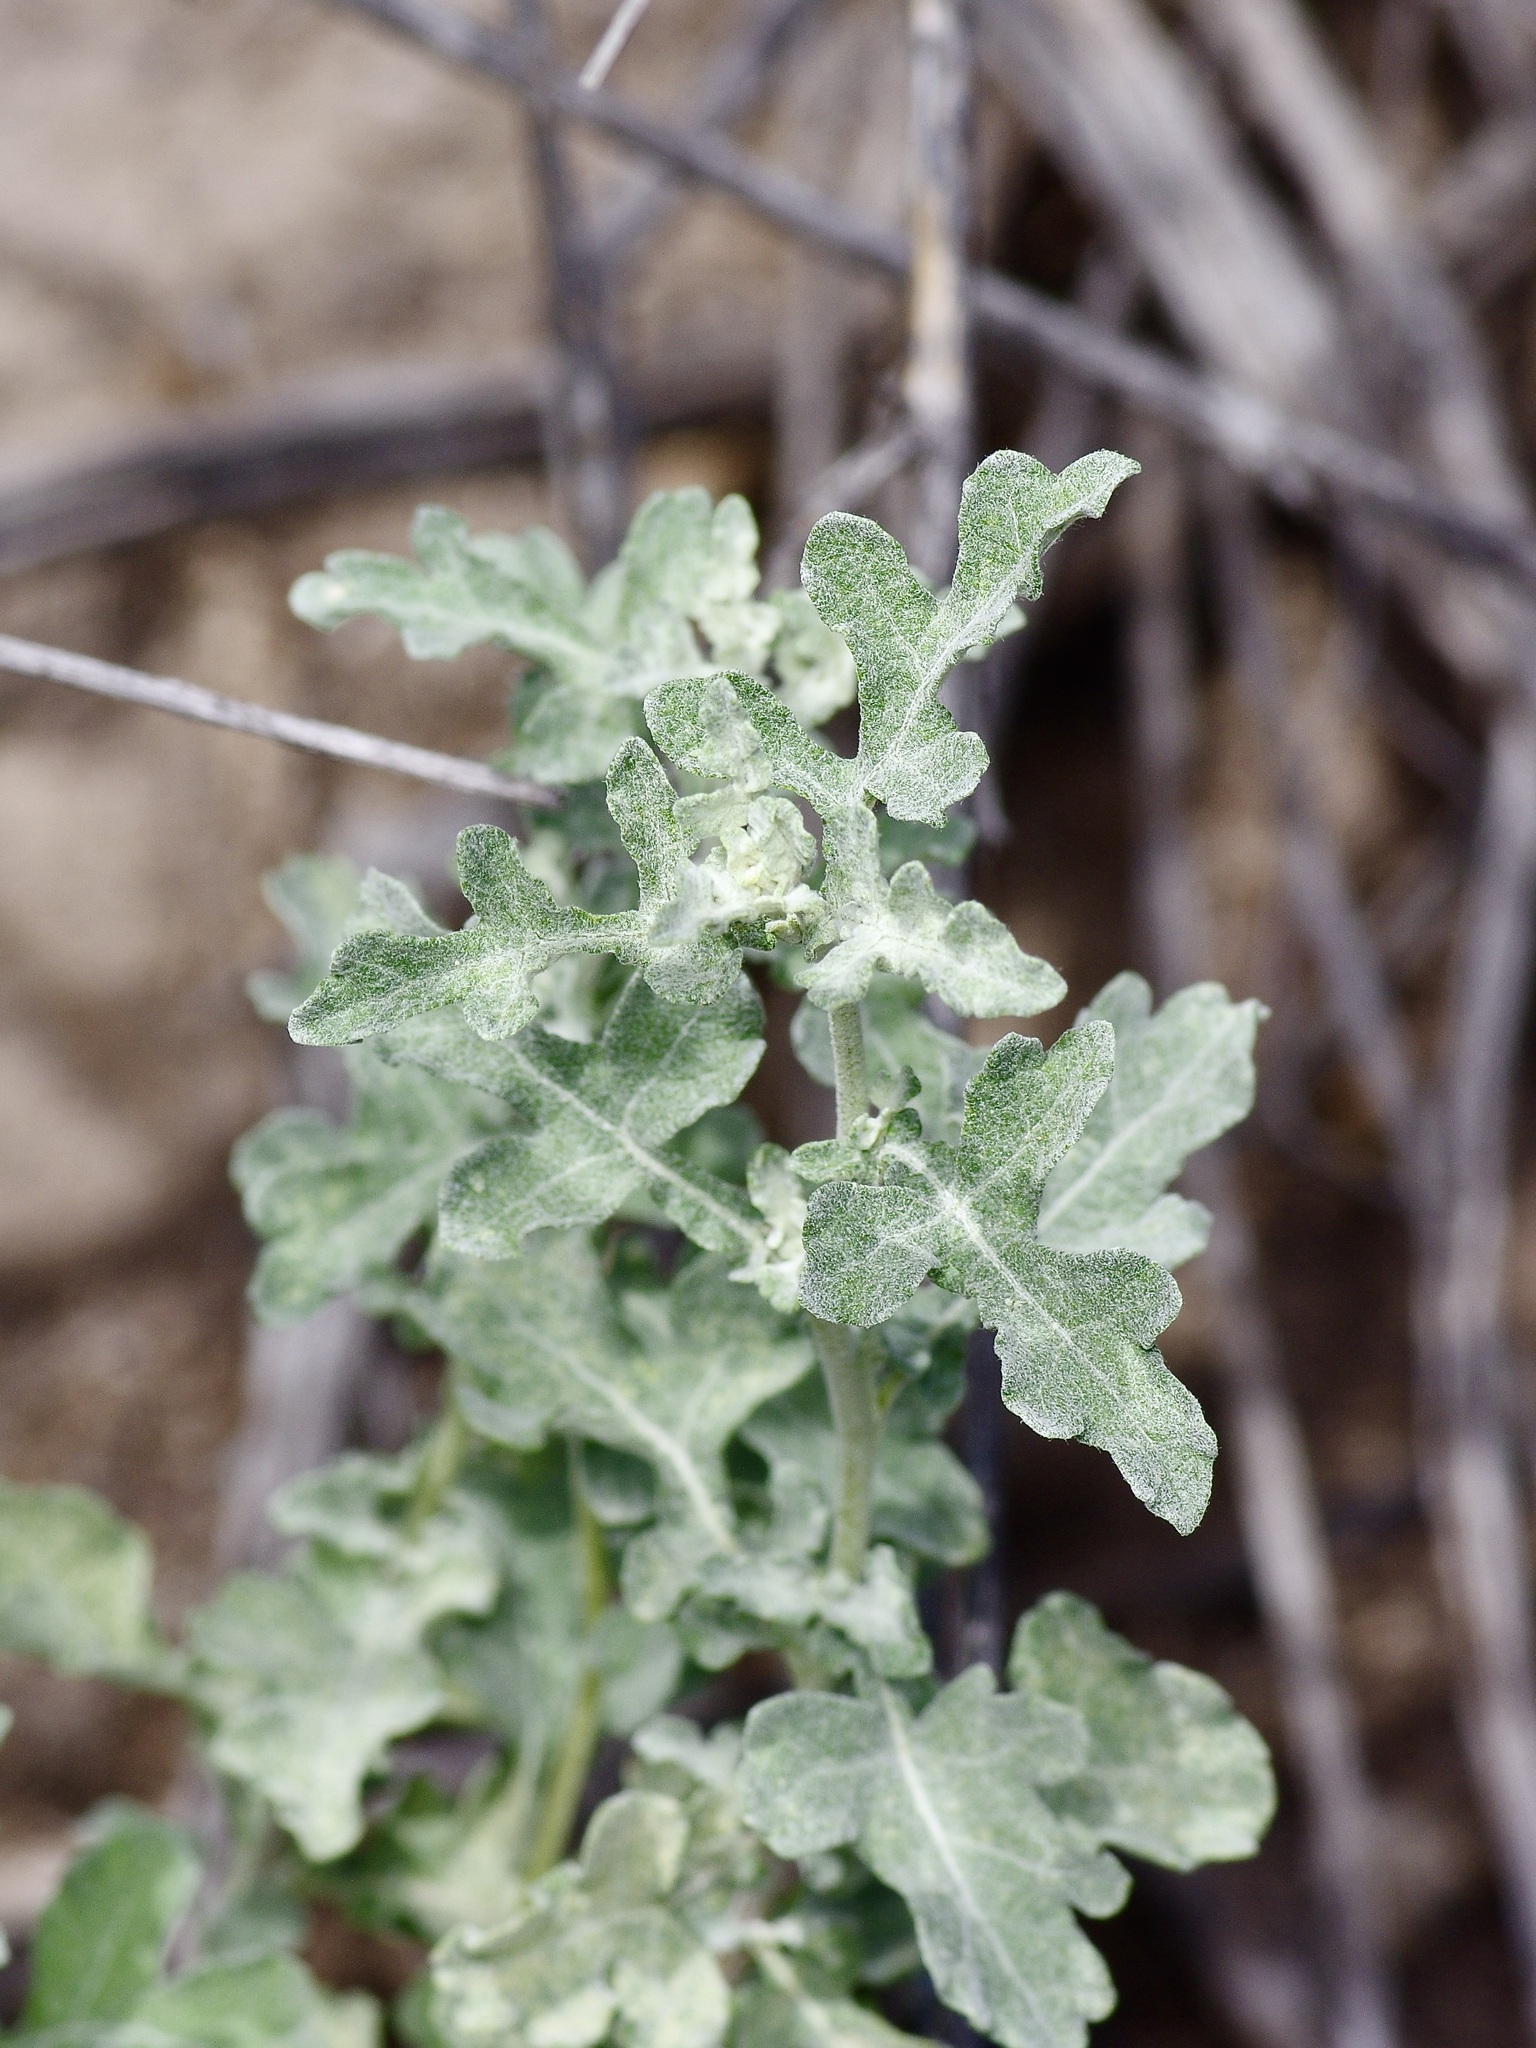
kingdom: Plantae
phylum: Tracheophyta
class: Magnoliopsida
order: Asterales
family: Asteraceae
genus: Parthenium
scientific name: Parthenium incanum
